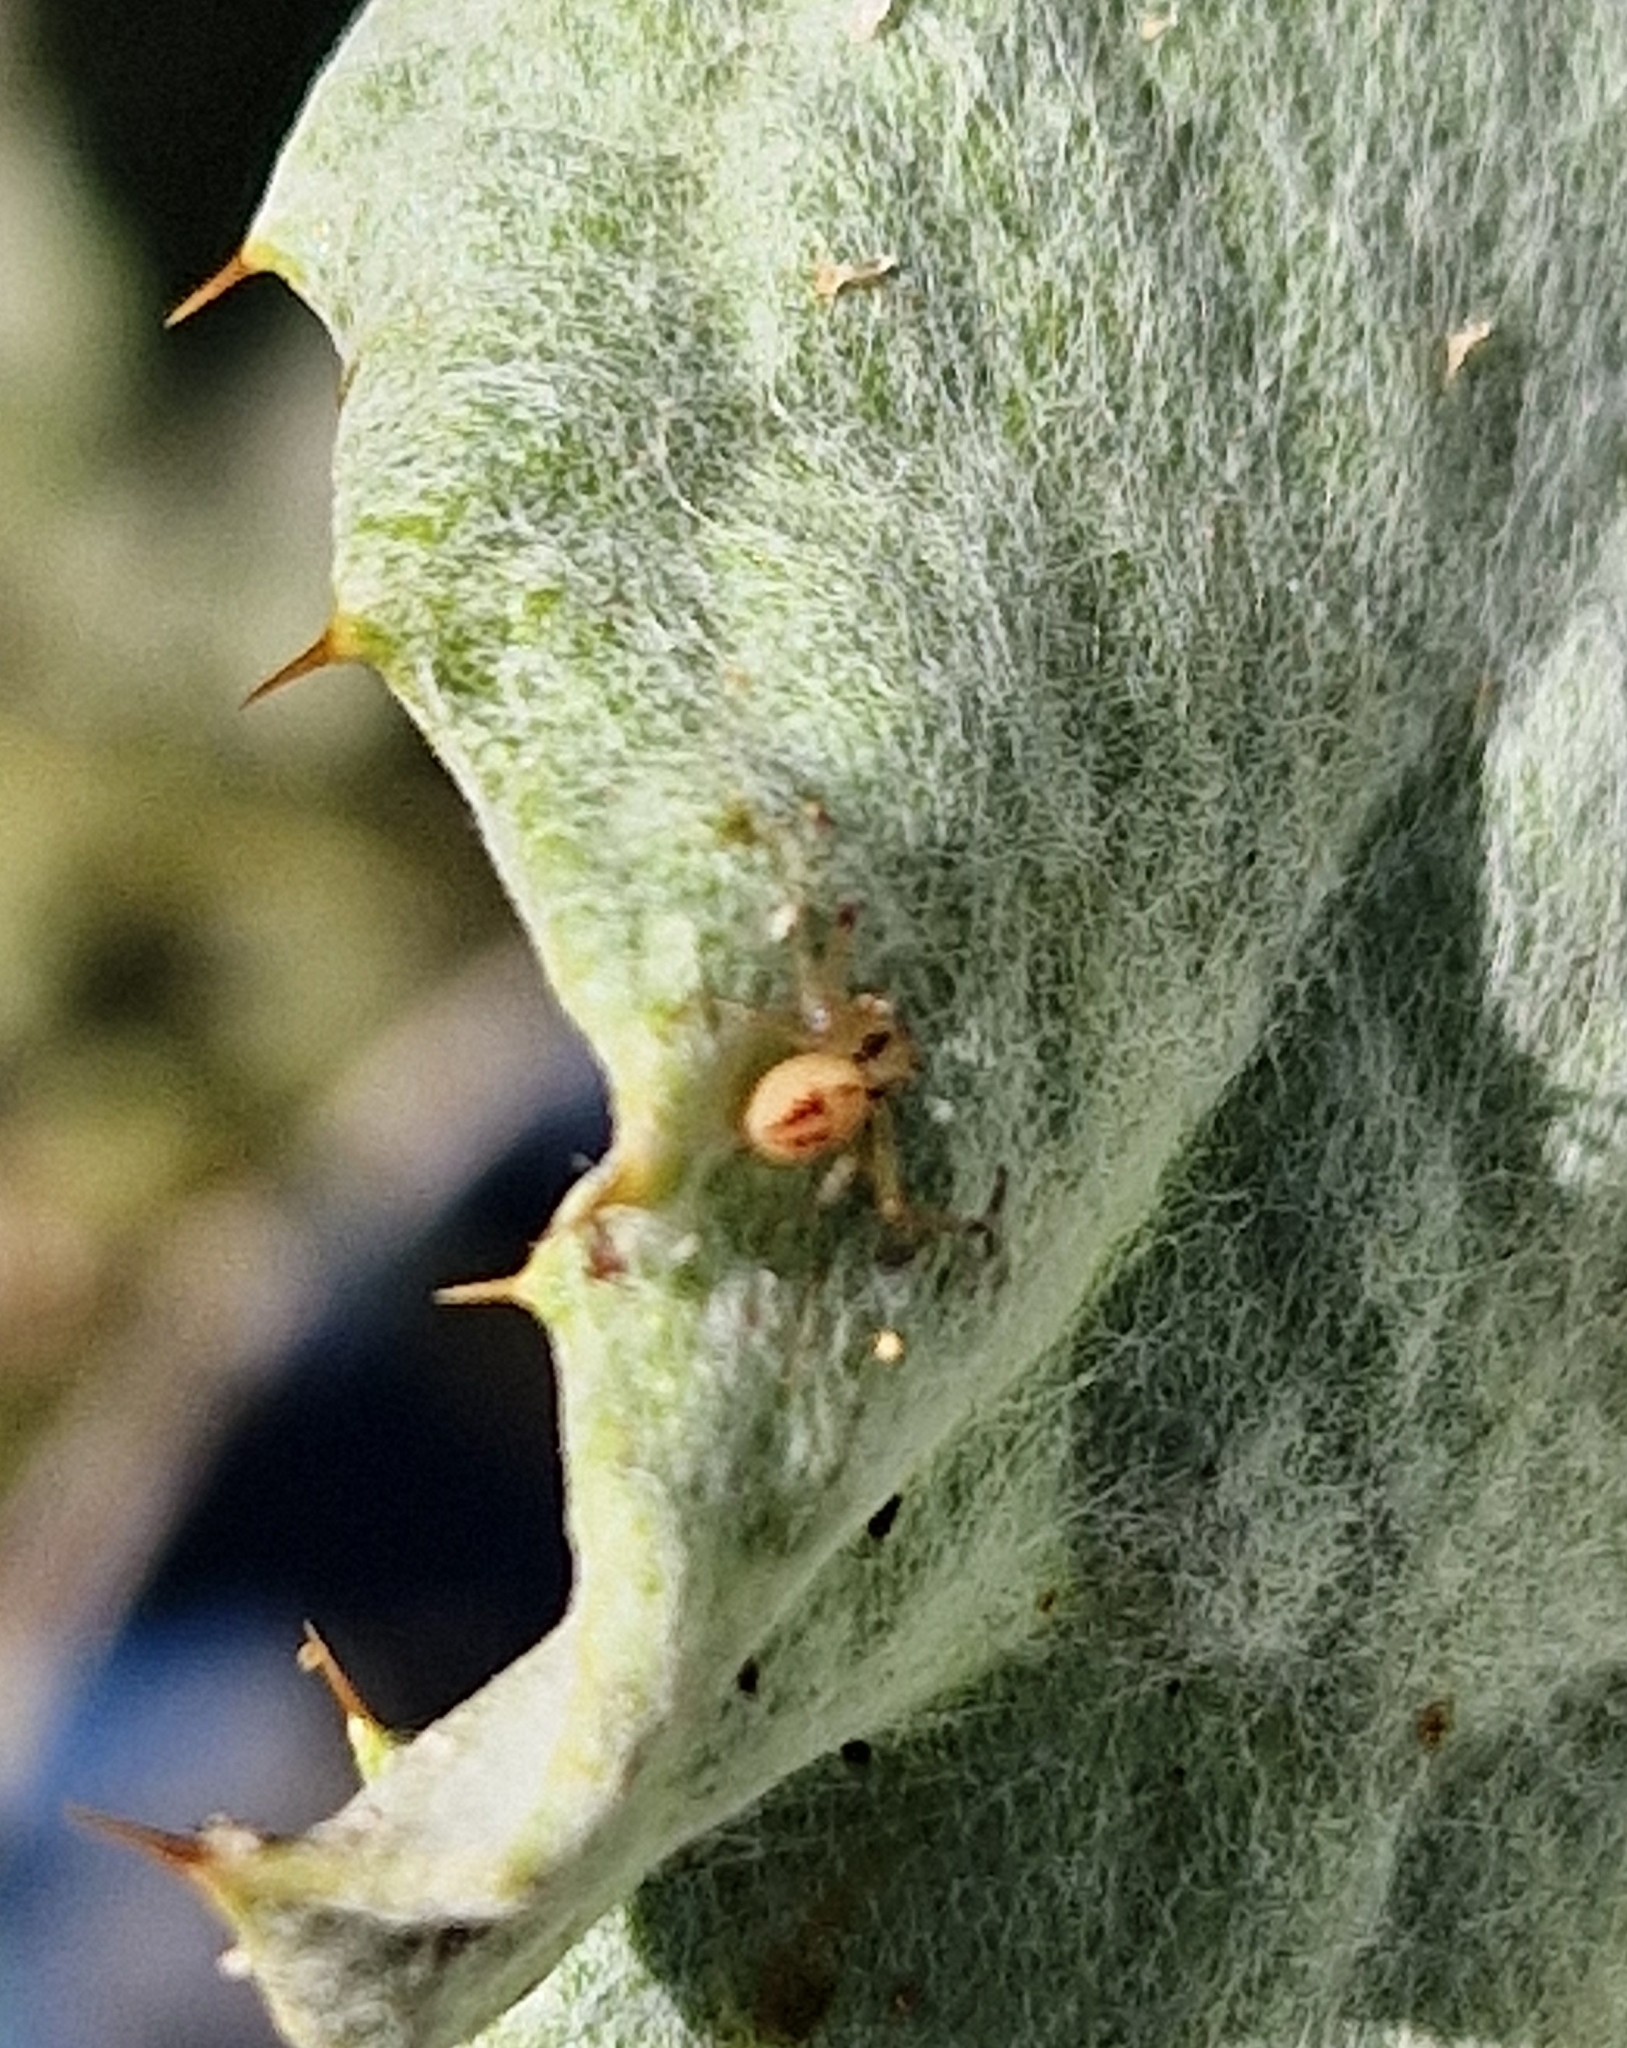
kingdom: Animalia
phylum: Arthropoda
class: Arachnida
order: Araneae
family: Thomisidae
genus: Misumenops
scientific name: Misumenops
